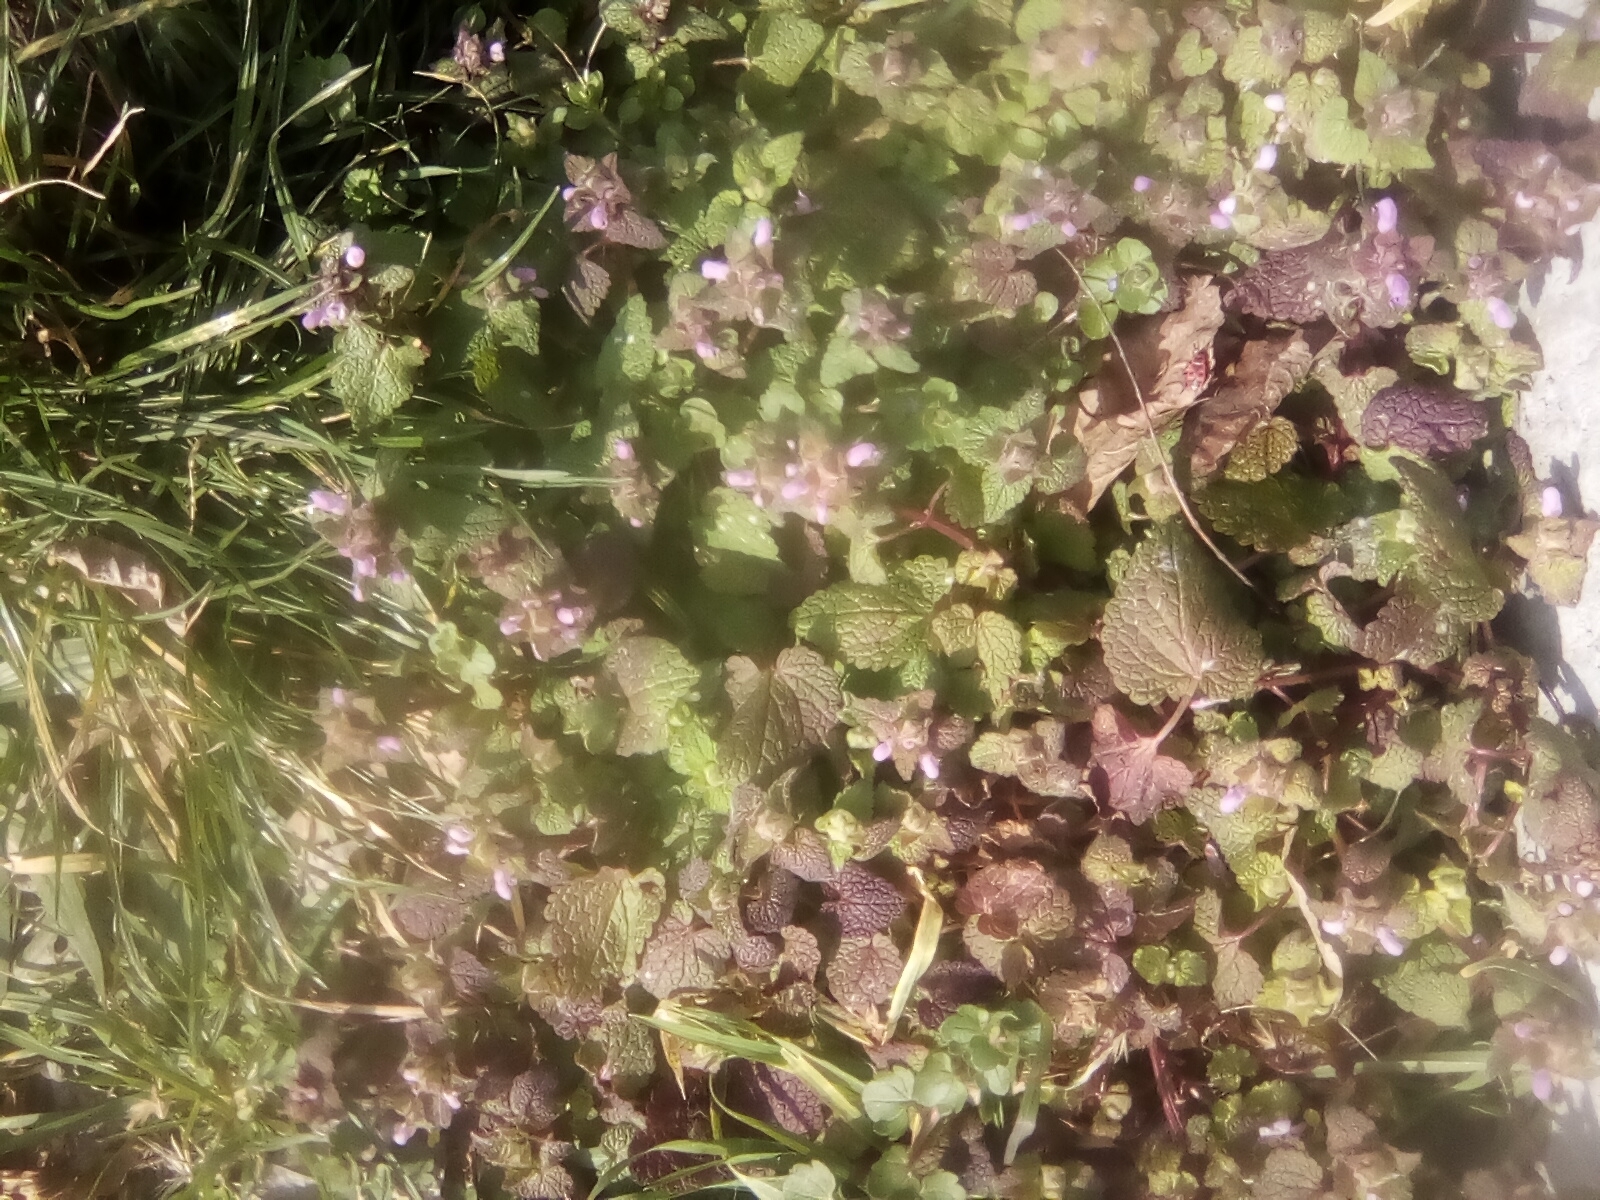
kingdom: Plantae
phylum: Tracheophyta
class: Magnoliopsida
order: Lamiales
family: Lamiaceae
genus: Lamium
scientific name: Lamium purpureum
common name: Red dead-nettle
